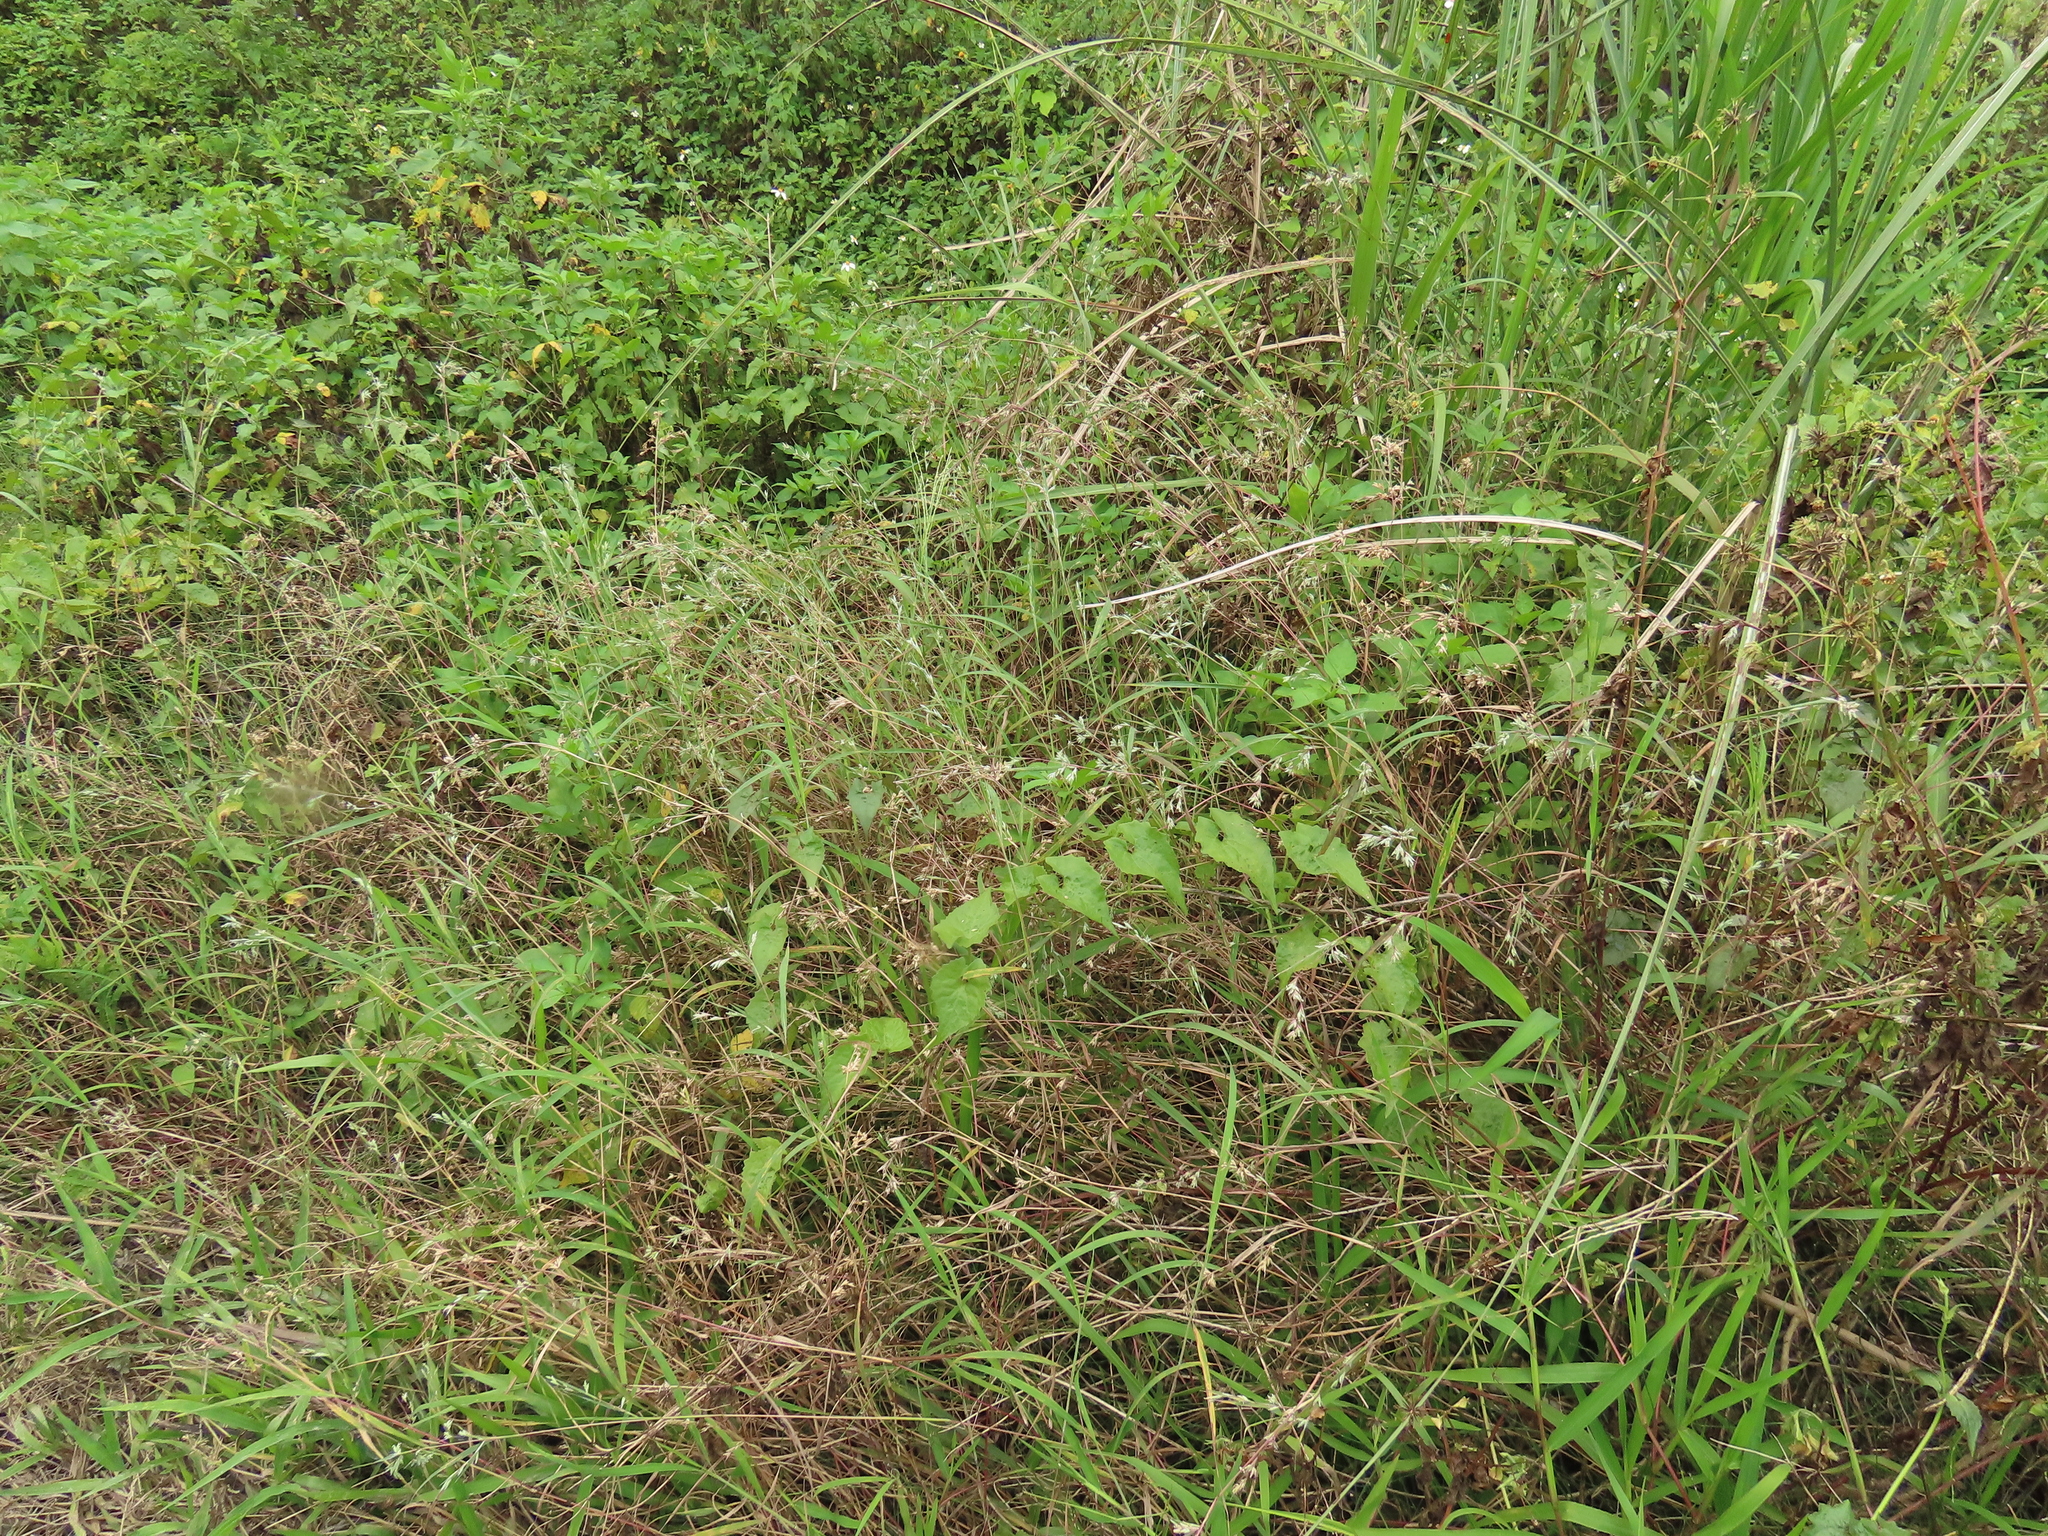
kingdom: Plantae
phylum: Tracheophyta
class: Liliopsida
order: Poales
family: Poaceae
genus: Apluda
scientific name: Apluda mutica
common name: Mauritian grass
